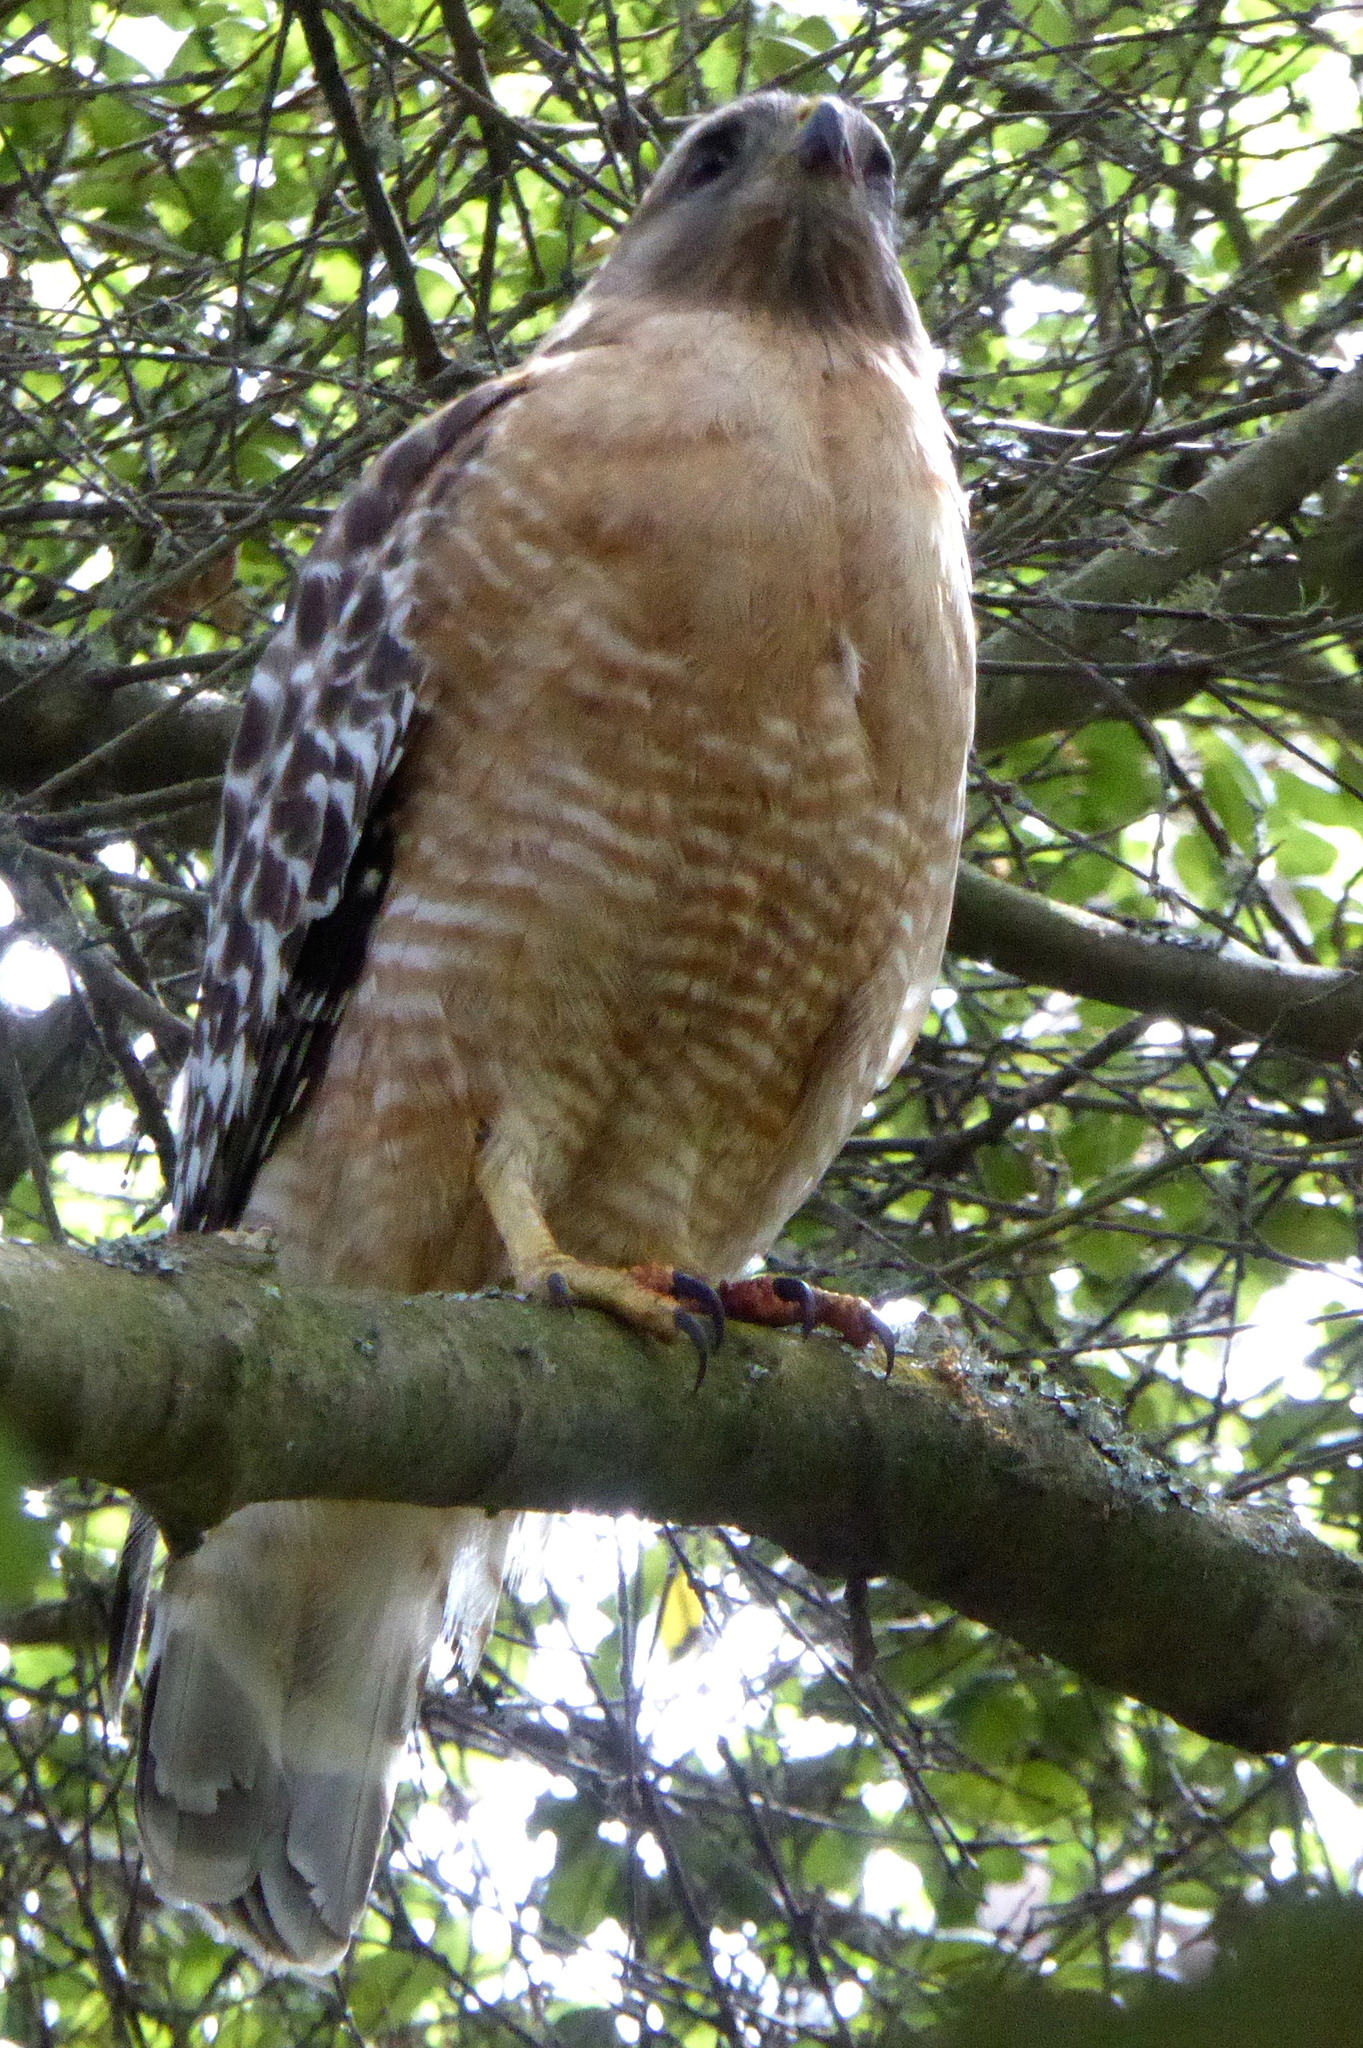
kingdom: Animalia
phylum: Chordata
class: Aves
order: Accipitriformes
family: Accipitridae
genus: Buteo
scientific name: Buteo lineatus
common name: Red-shouldered hawk
